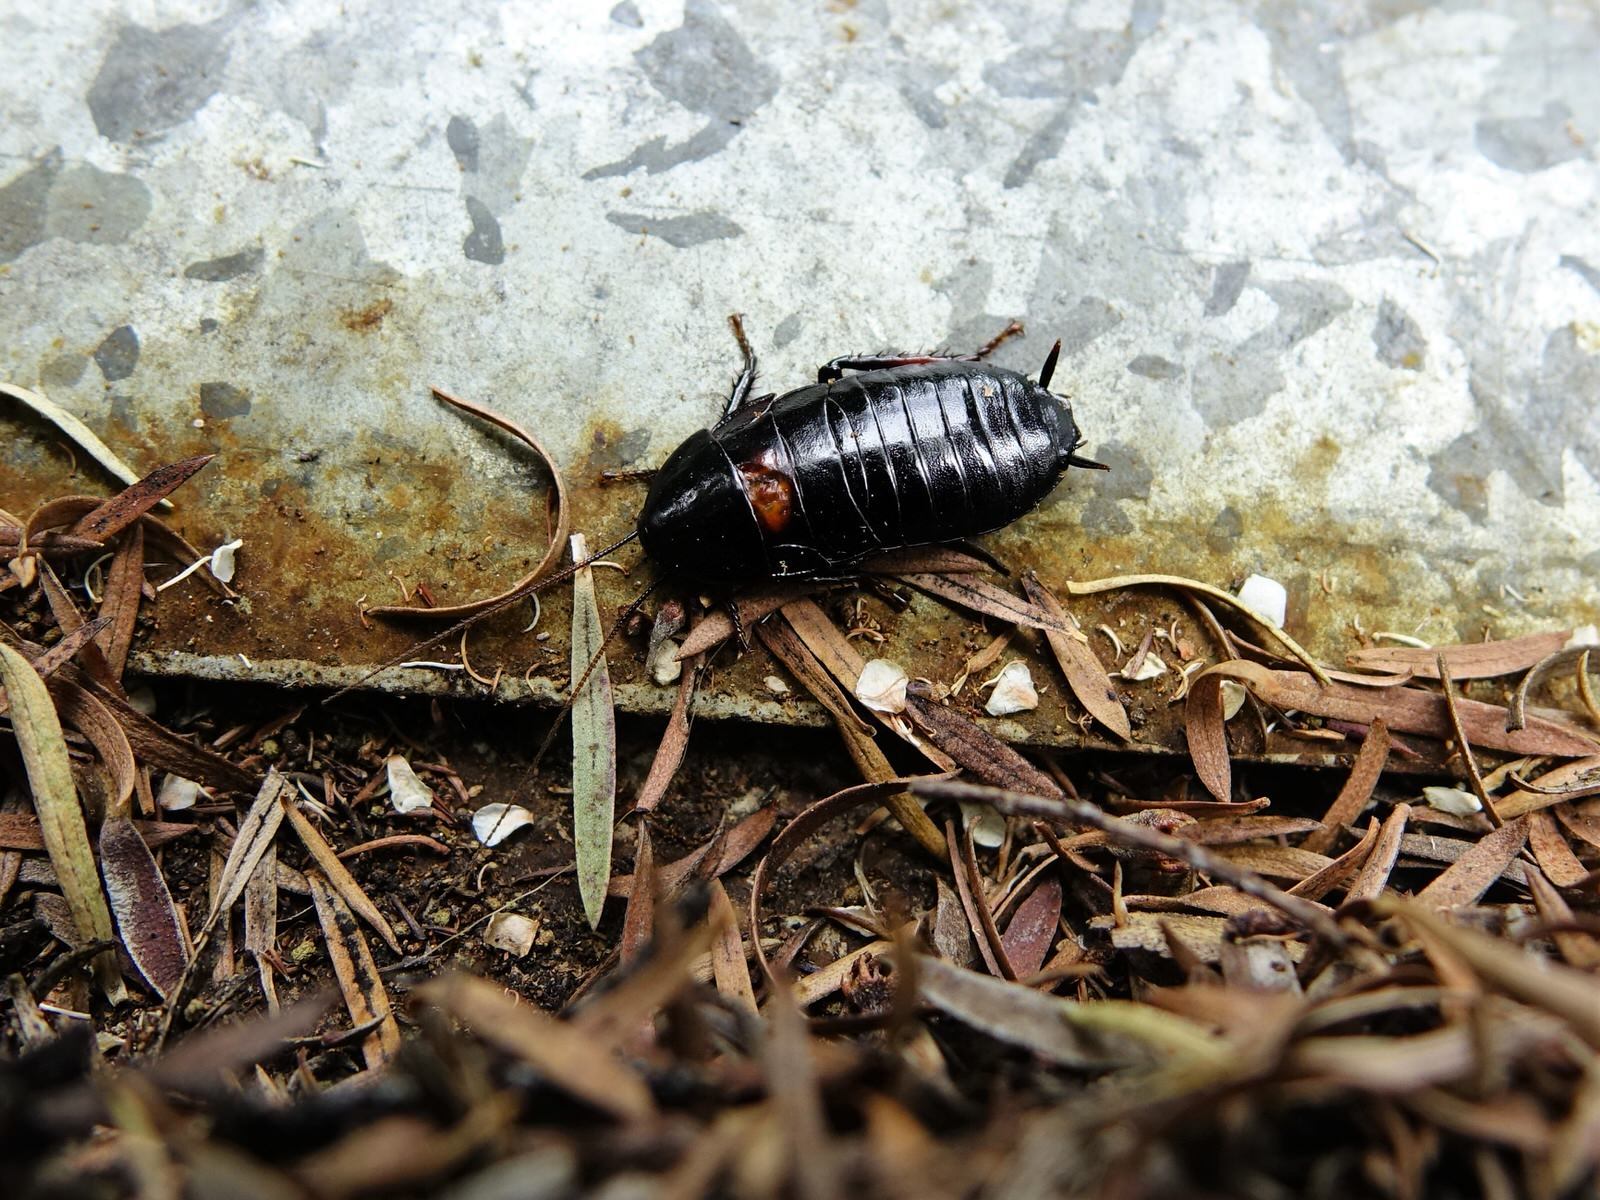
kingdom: Animalia
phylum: Arthropoda
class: Insecta
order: Blattodea
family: Blattidae
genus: Maoriblatta
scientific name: Maoriblatta novaeseelandiae
